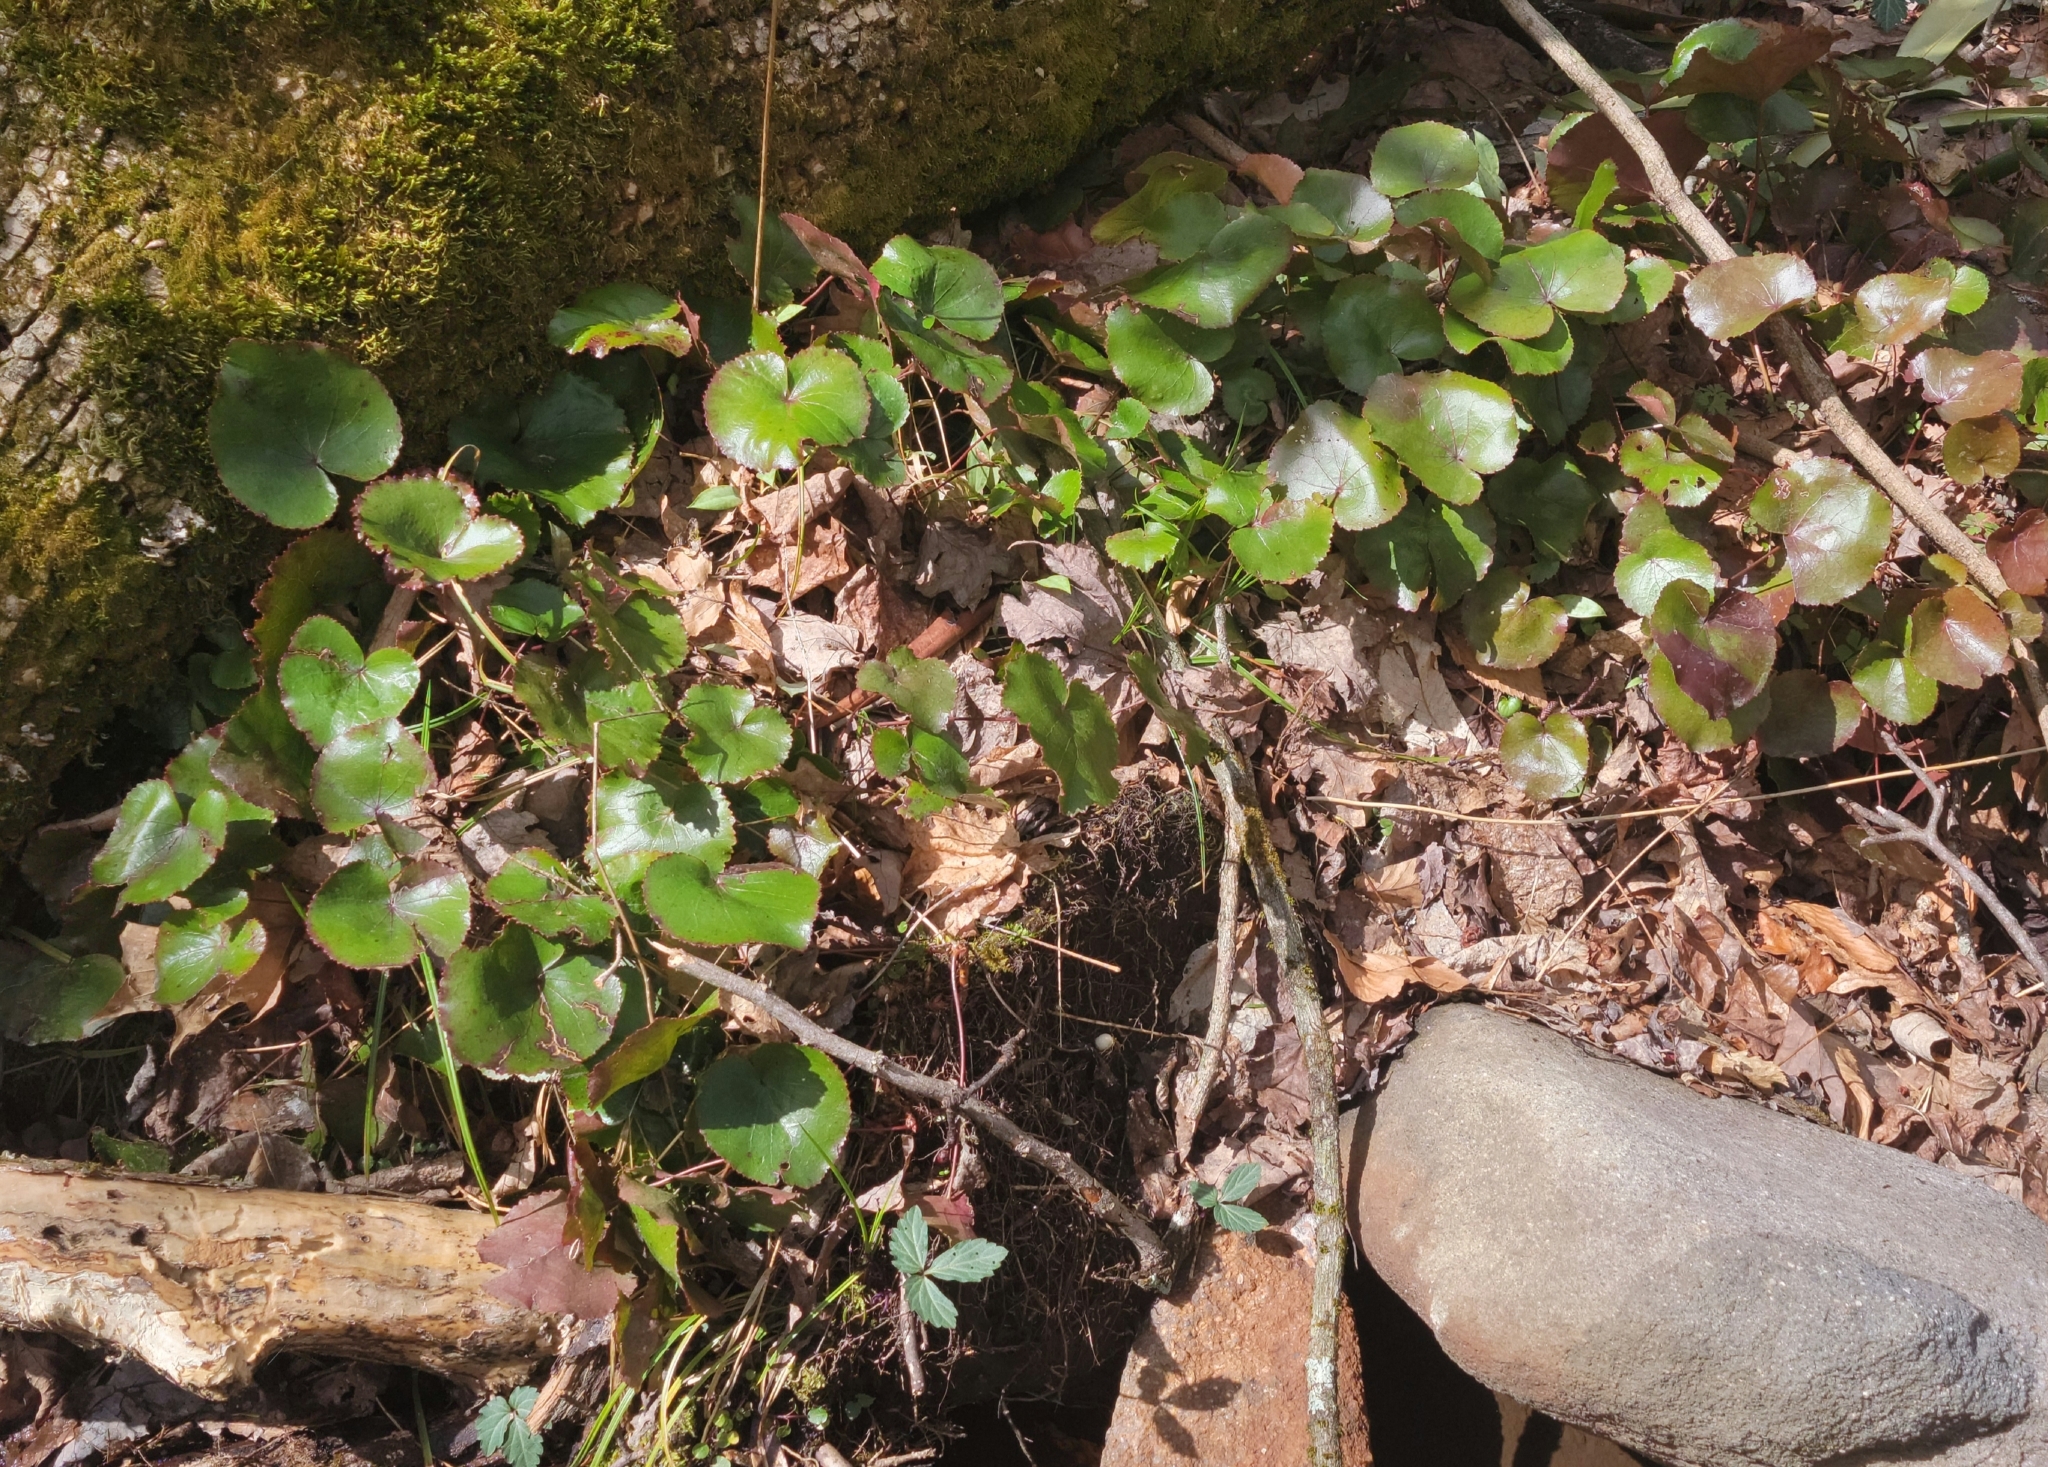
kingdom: Plantae
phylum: Tracheophyta
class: Magnoliopsida
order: Ericales
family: Diapensiaceae
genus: Galax
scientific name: Galax urceolata
